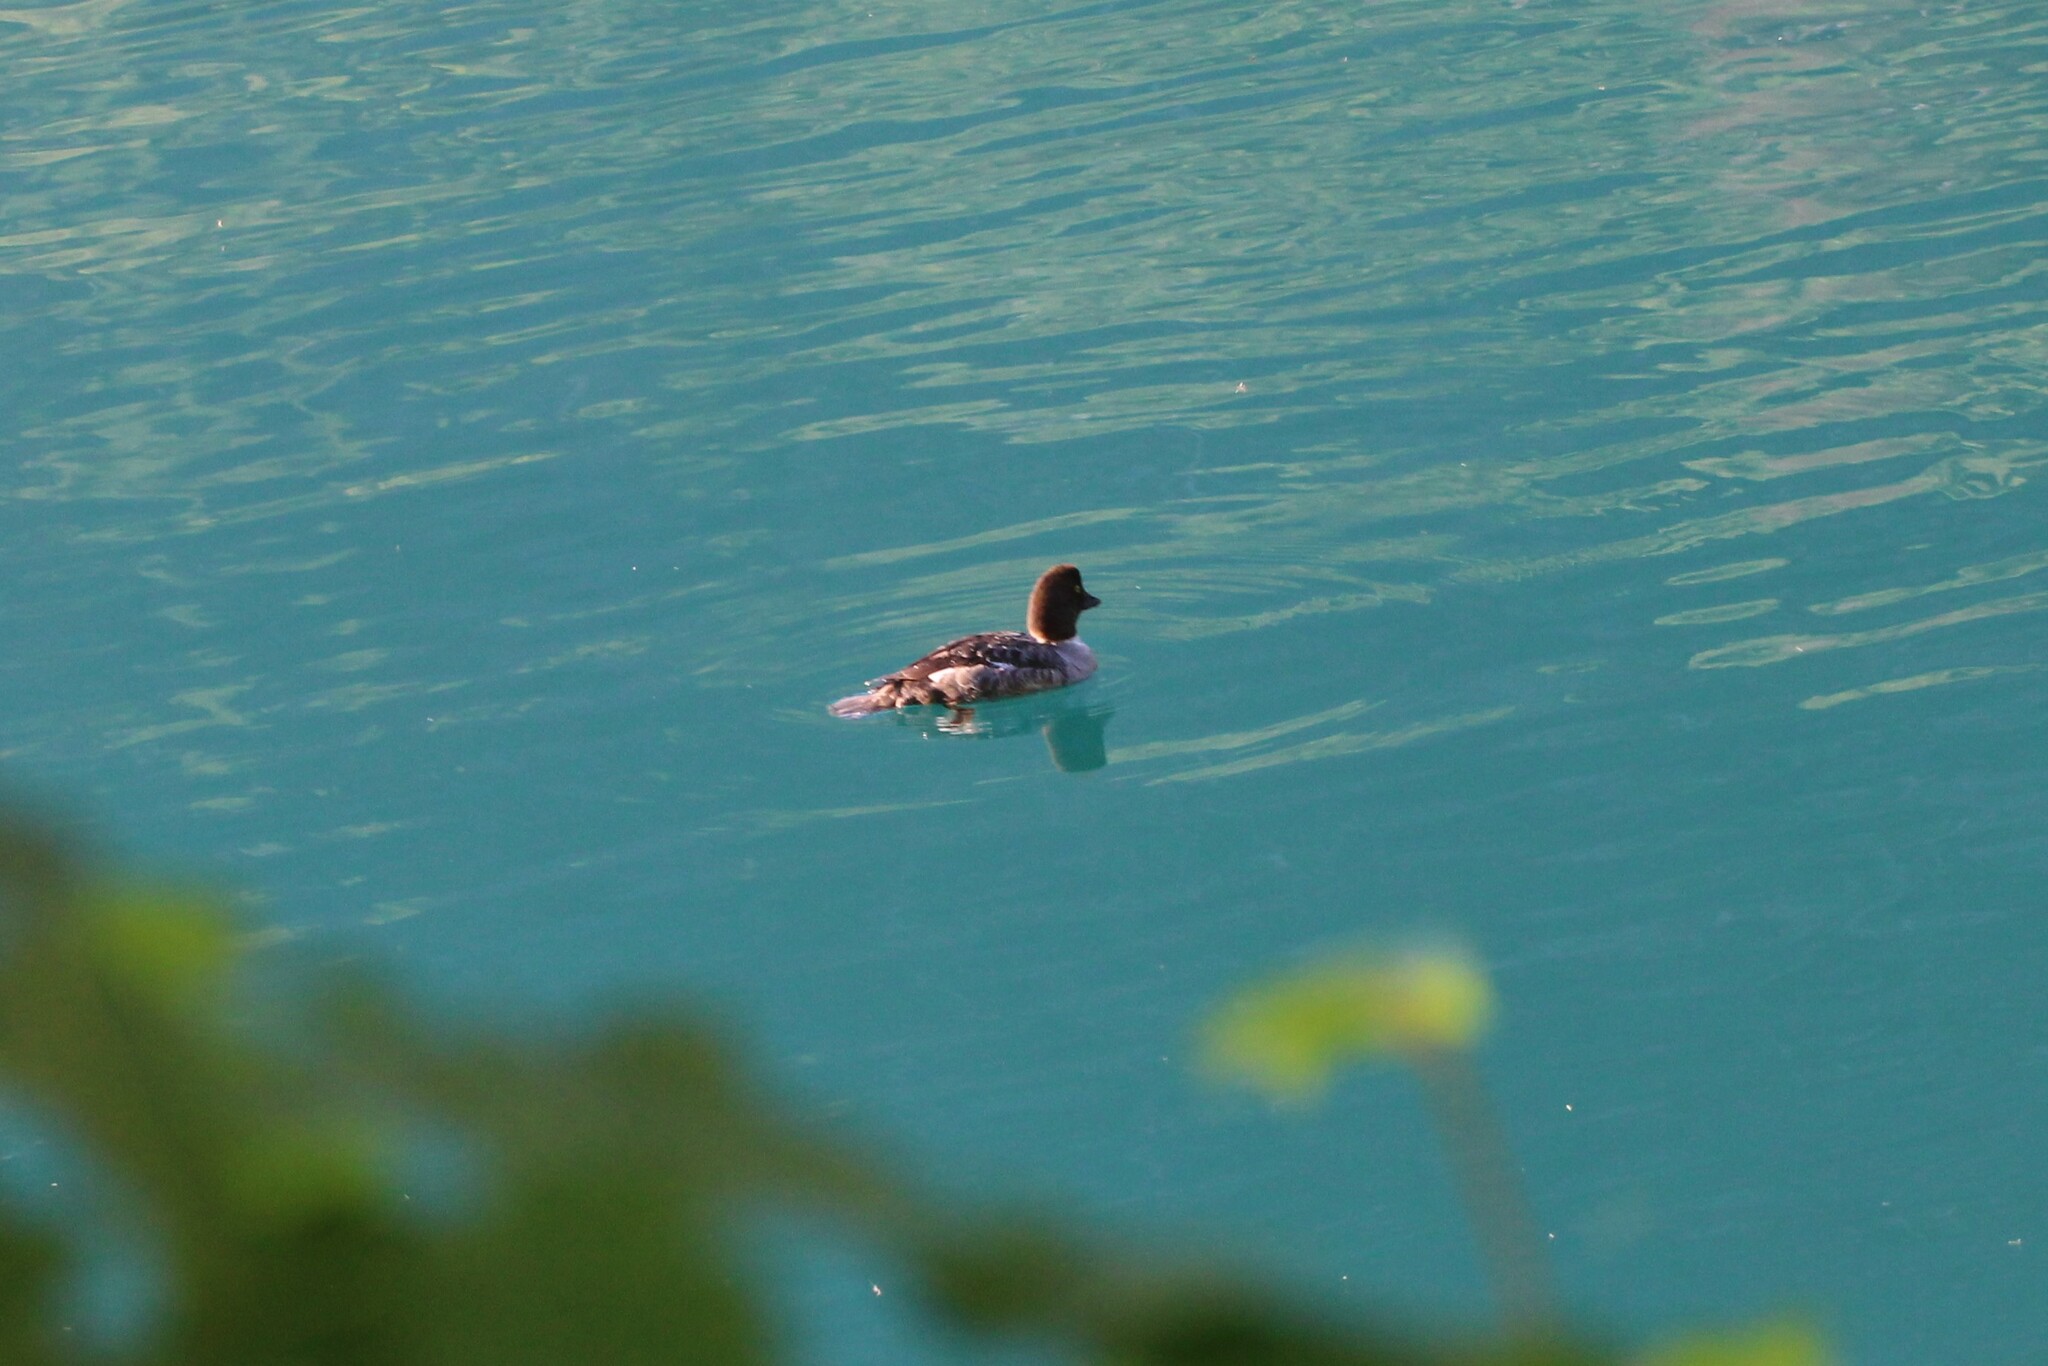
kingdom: Animalia
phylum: Chordata
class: Aves
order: Anseriformes
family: Anatidae
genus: Bucephala
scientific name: Bucephala islandica
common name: Barrow's goldeneye
